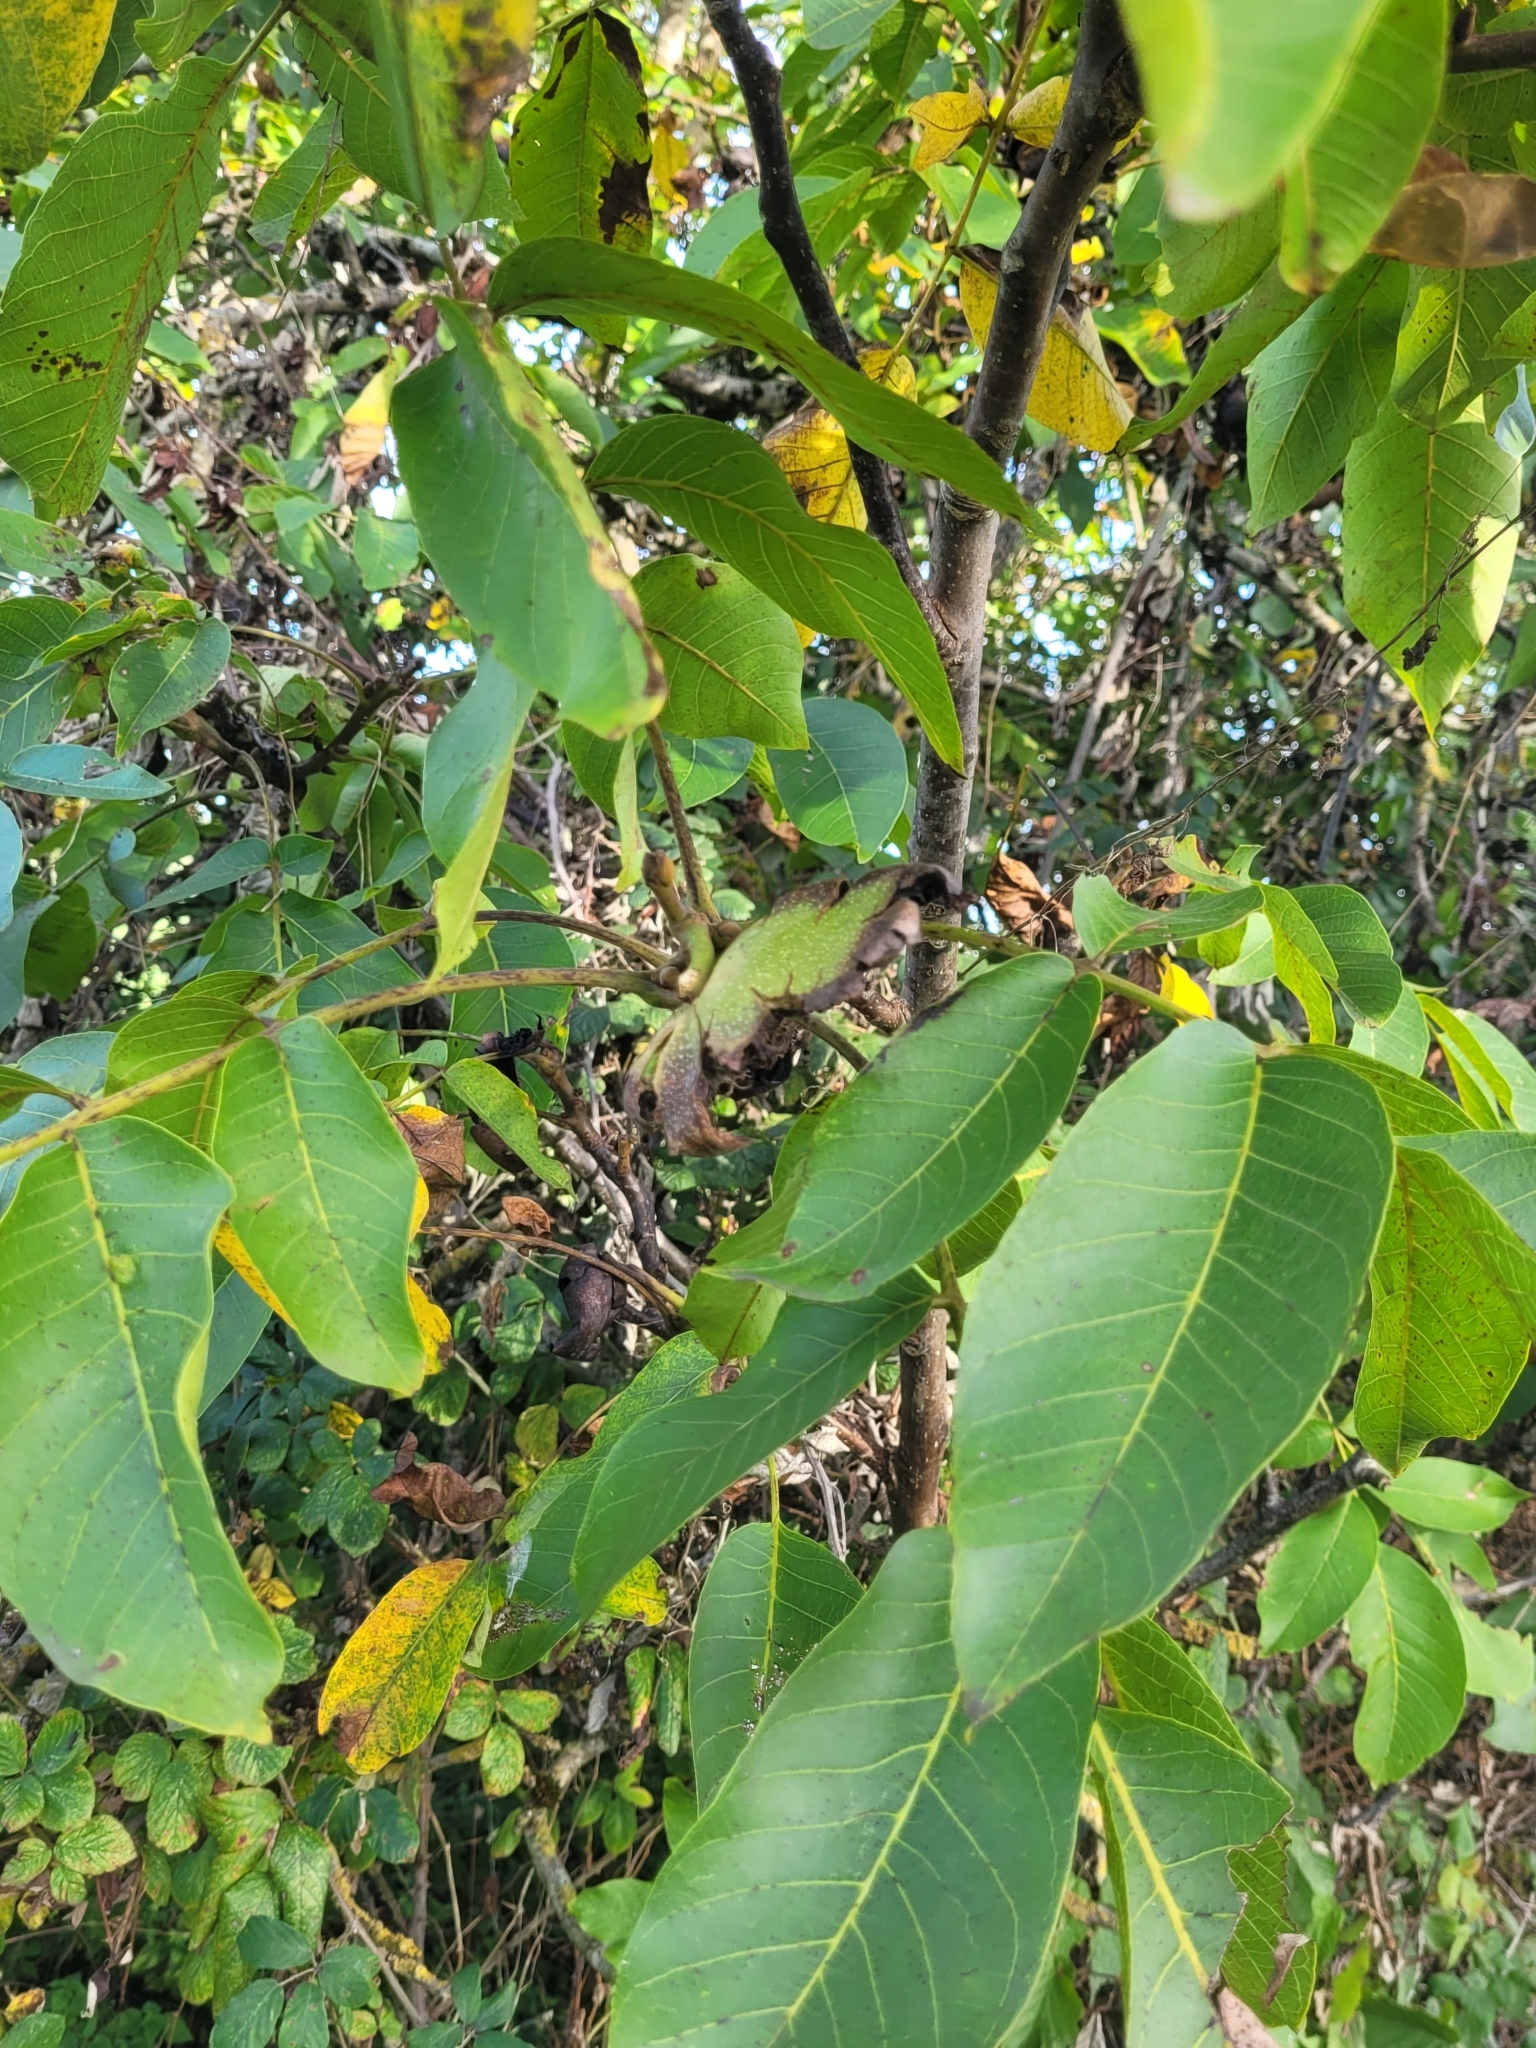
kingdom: Plantae
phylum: Tracheophyta
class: Magnoliopsida
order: Fagales
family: Juglandaceae
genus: Juglans
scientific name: Juglans regia
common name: Walnut
